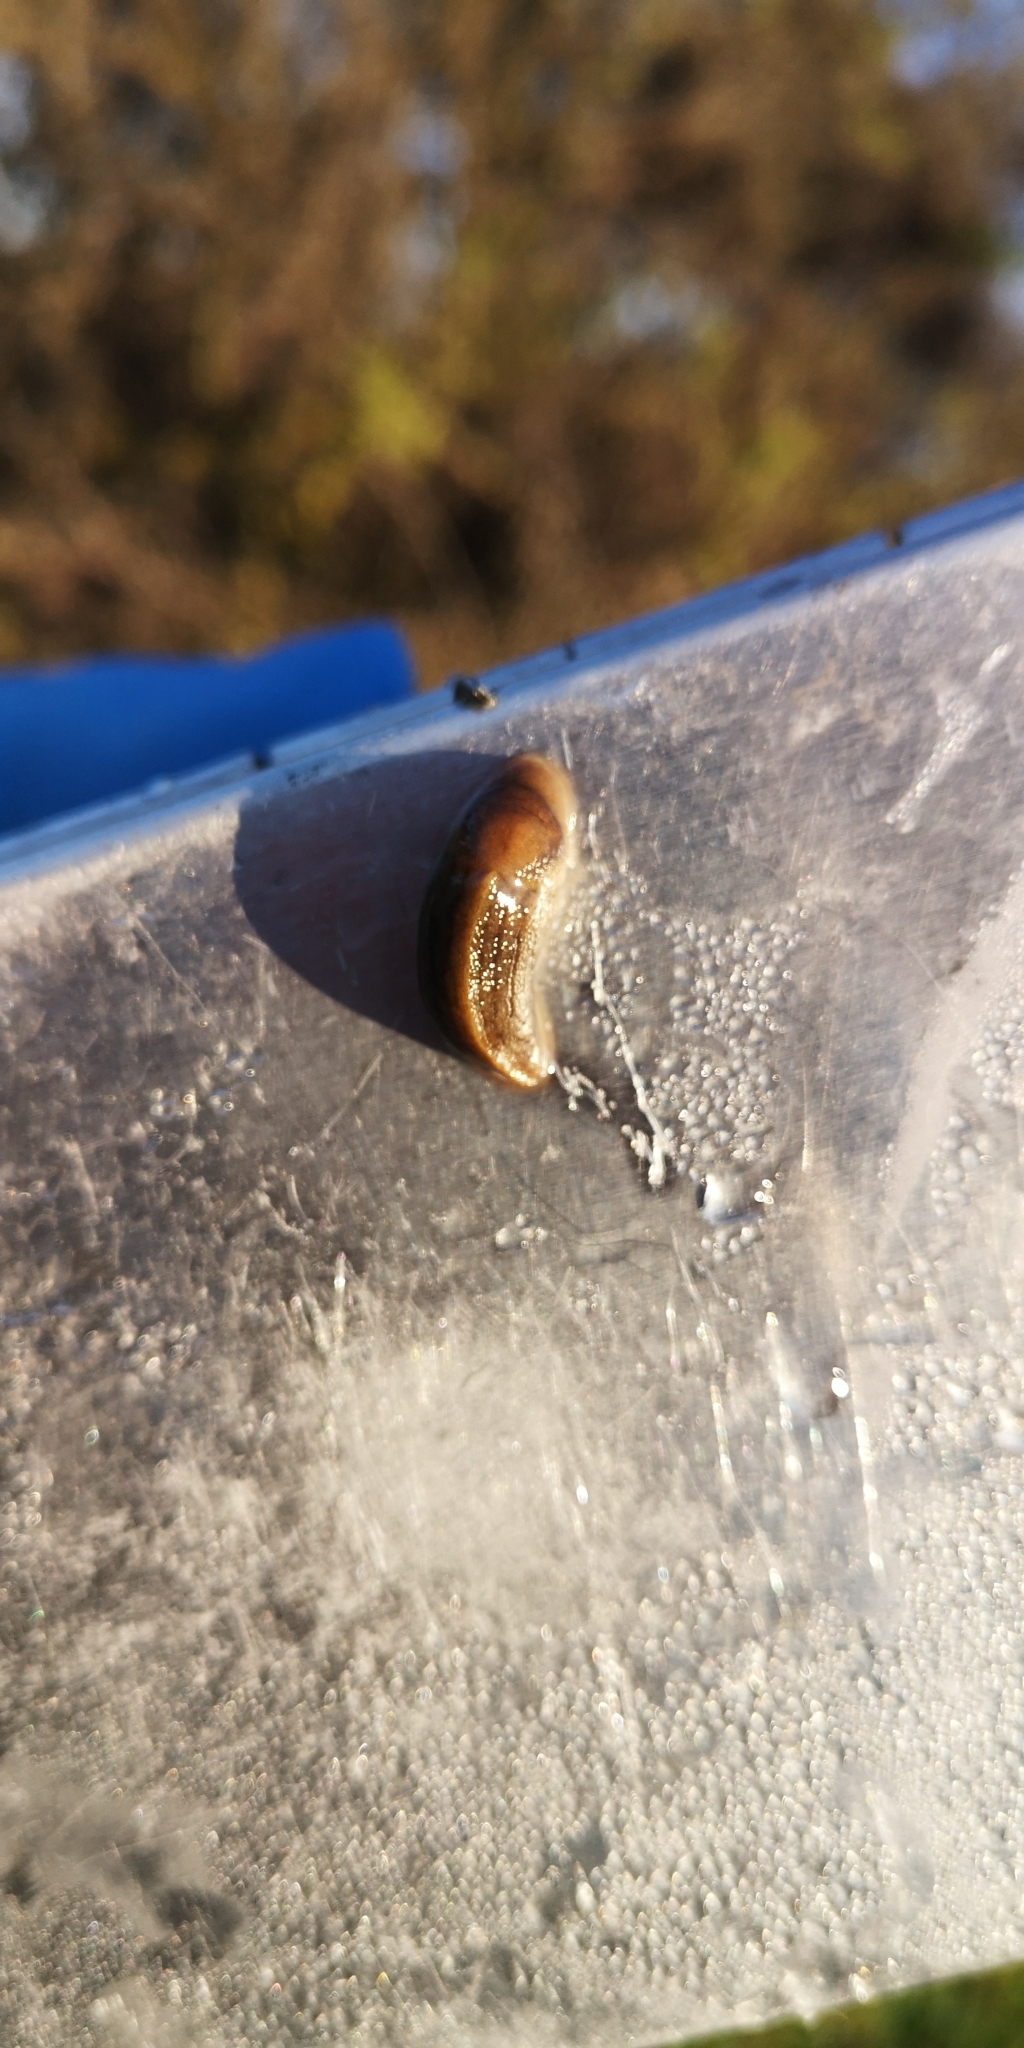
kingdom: Animalia
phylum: Mollusca
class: Gastropoda
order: Stylommatophora
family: Milacidae
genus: Milax
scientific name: Milax gagates
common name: Greenhouse slug
